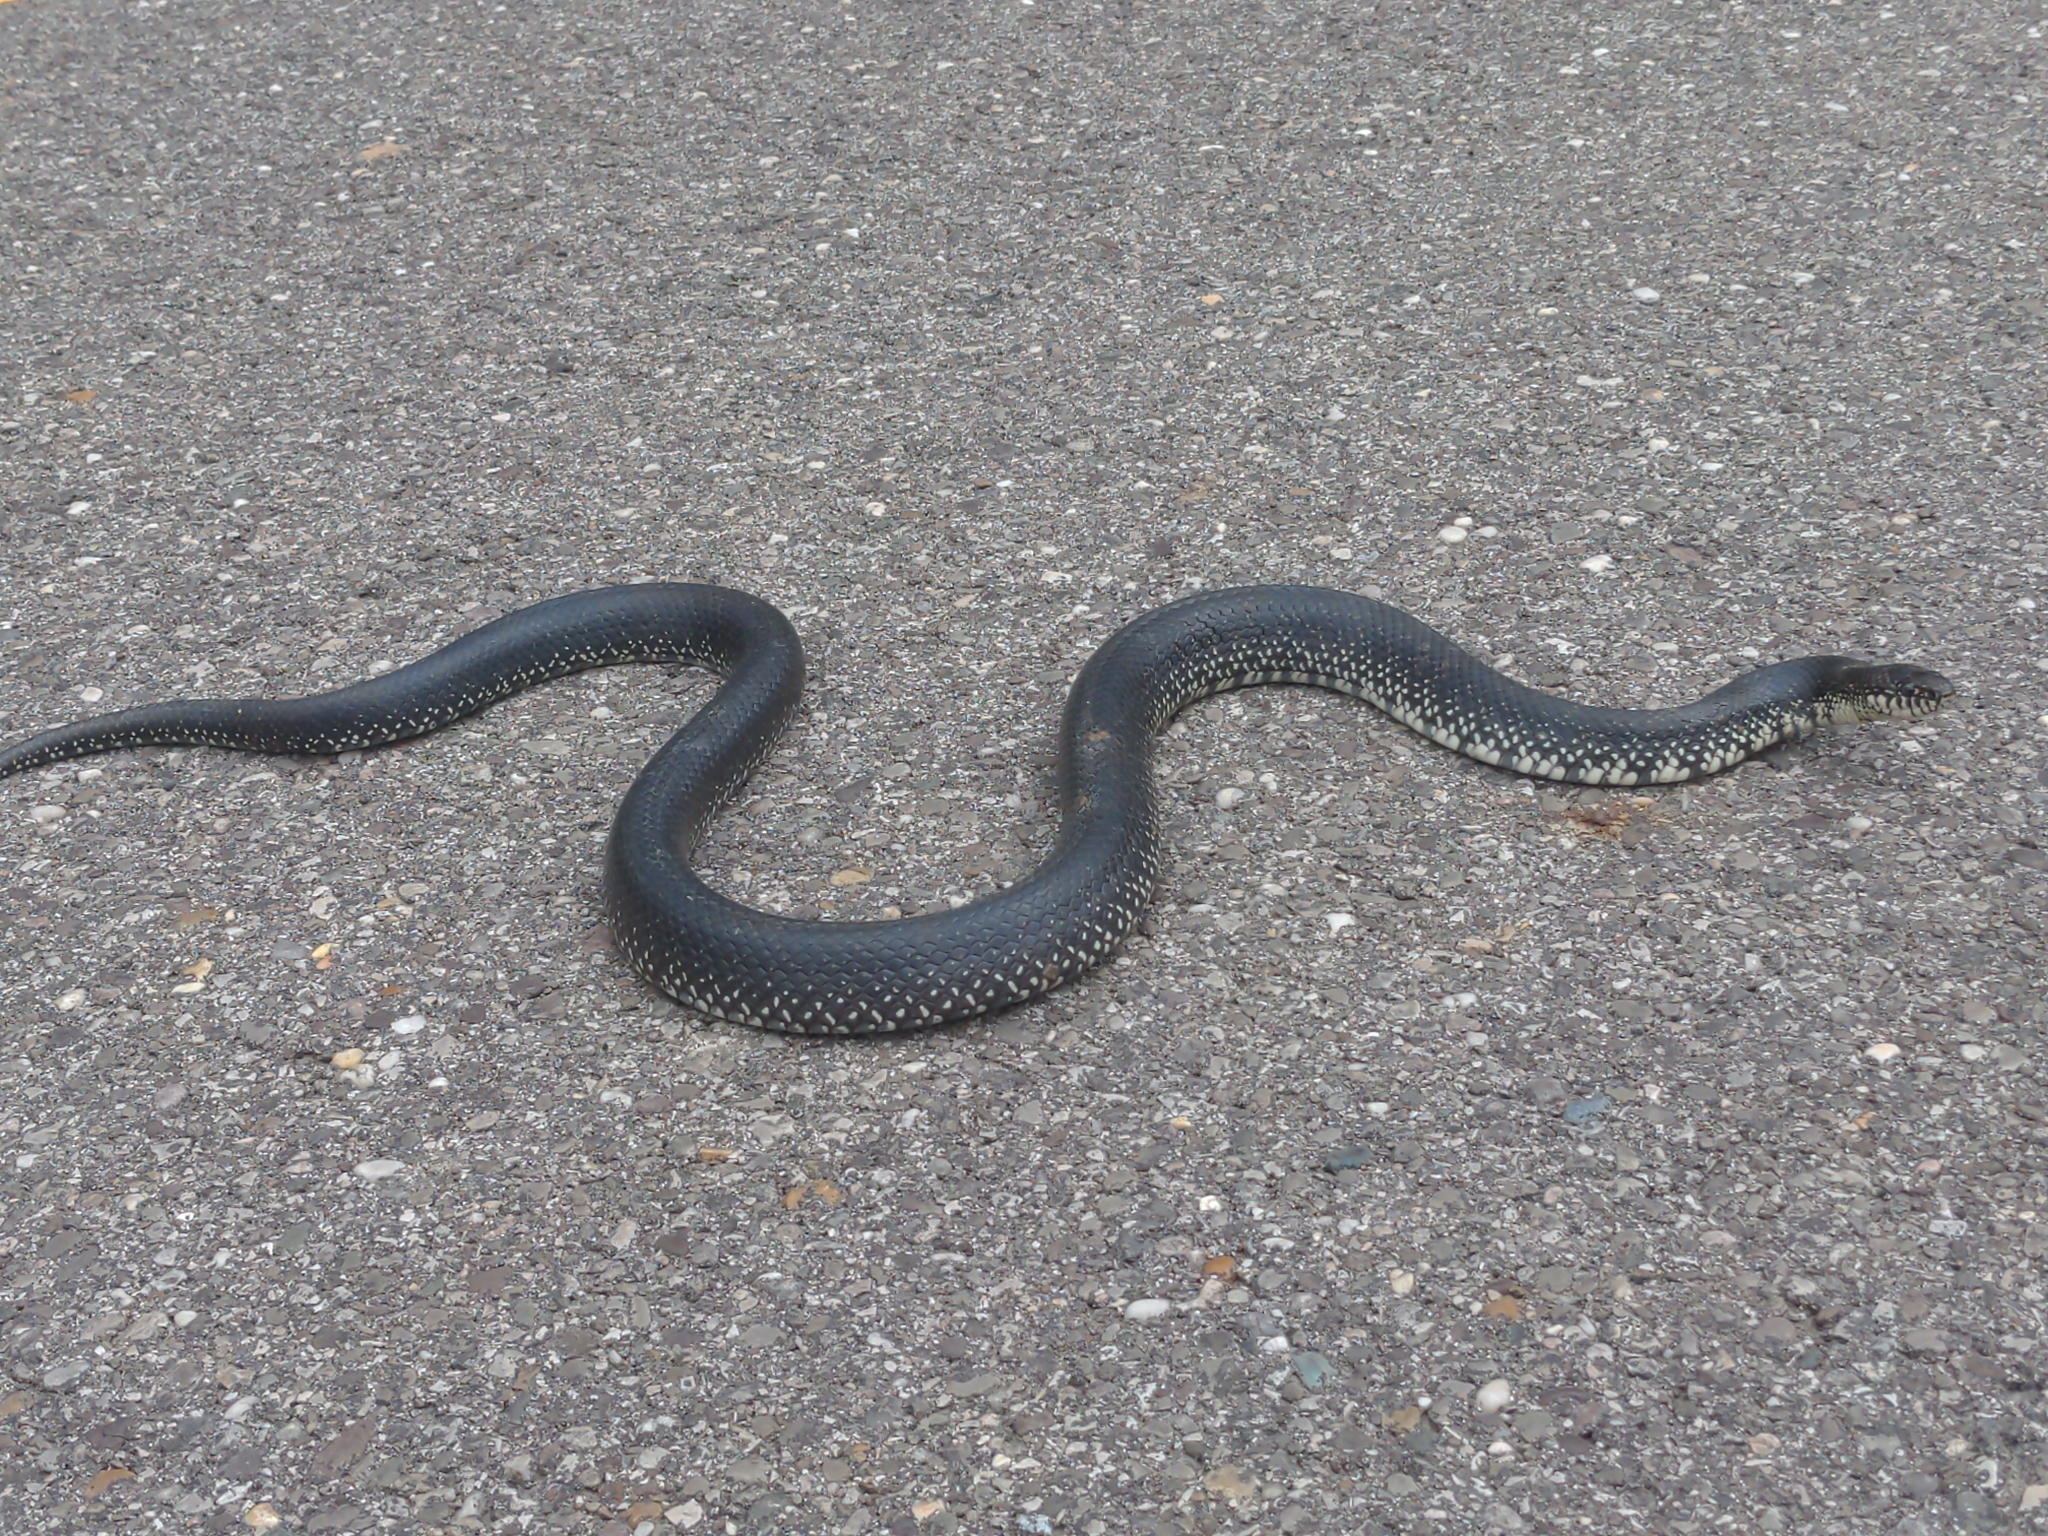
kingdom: Animalia
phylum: Chordata
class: Squamata
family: Colubridae
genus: Lampropeltis
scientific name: Lampropeltis nigra
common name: Black kingsnake
